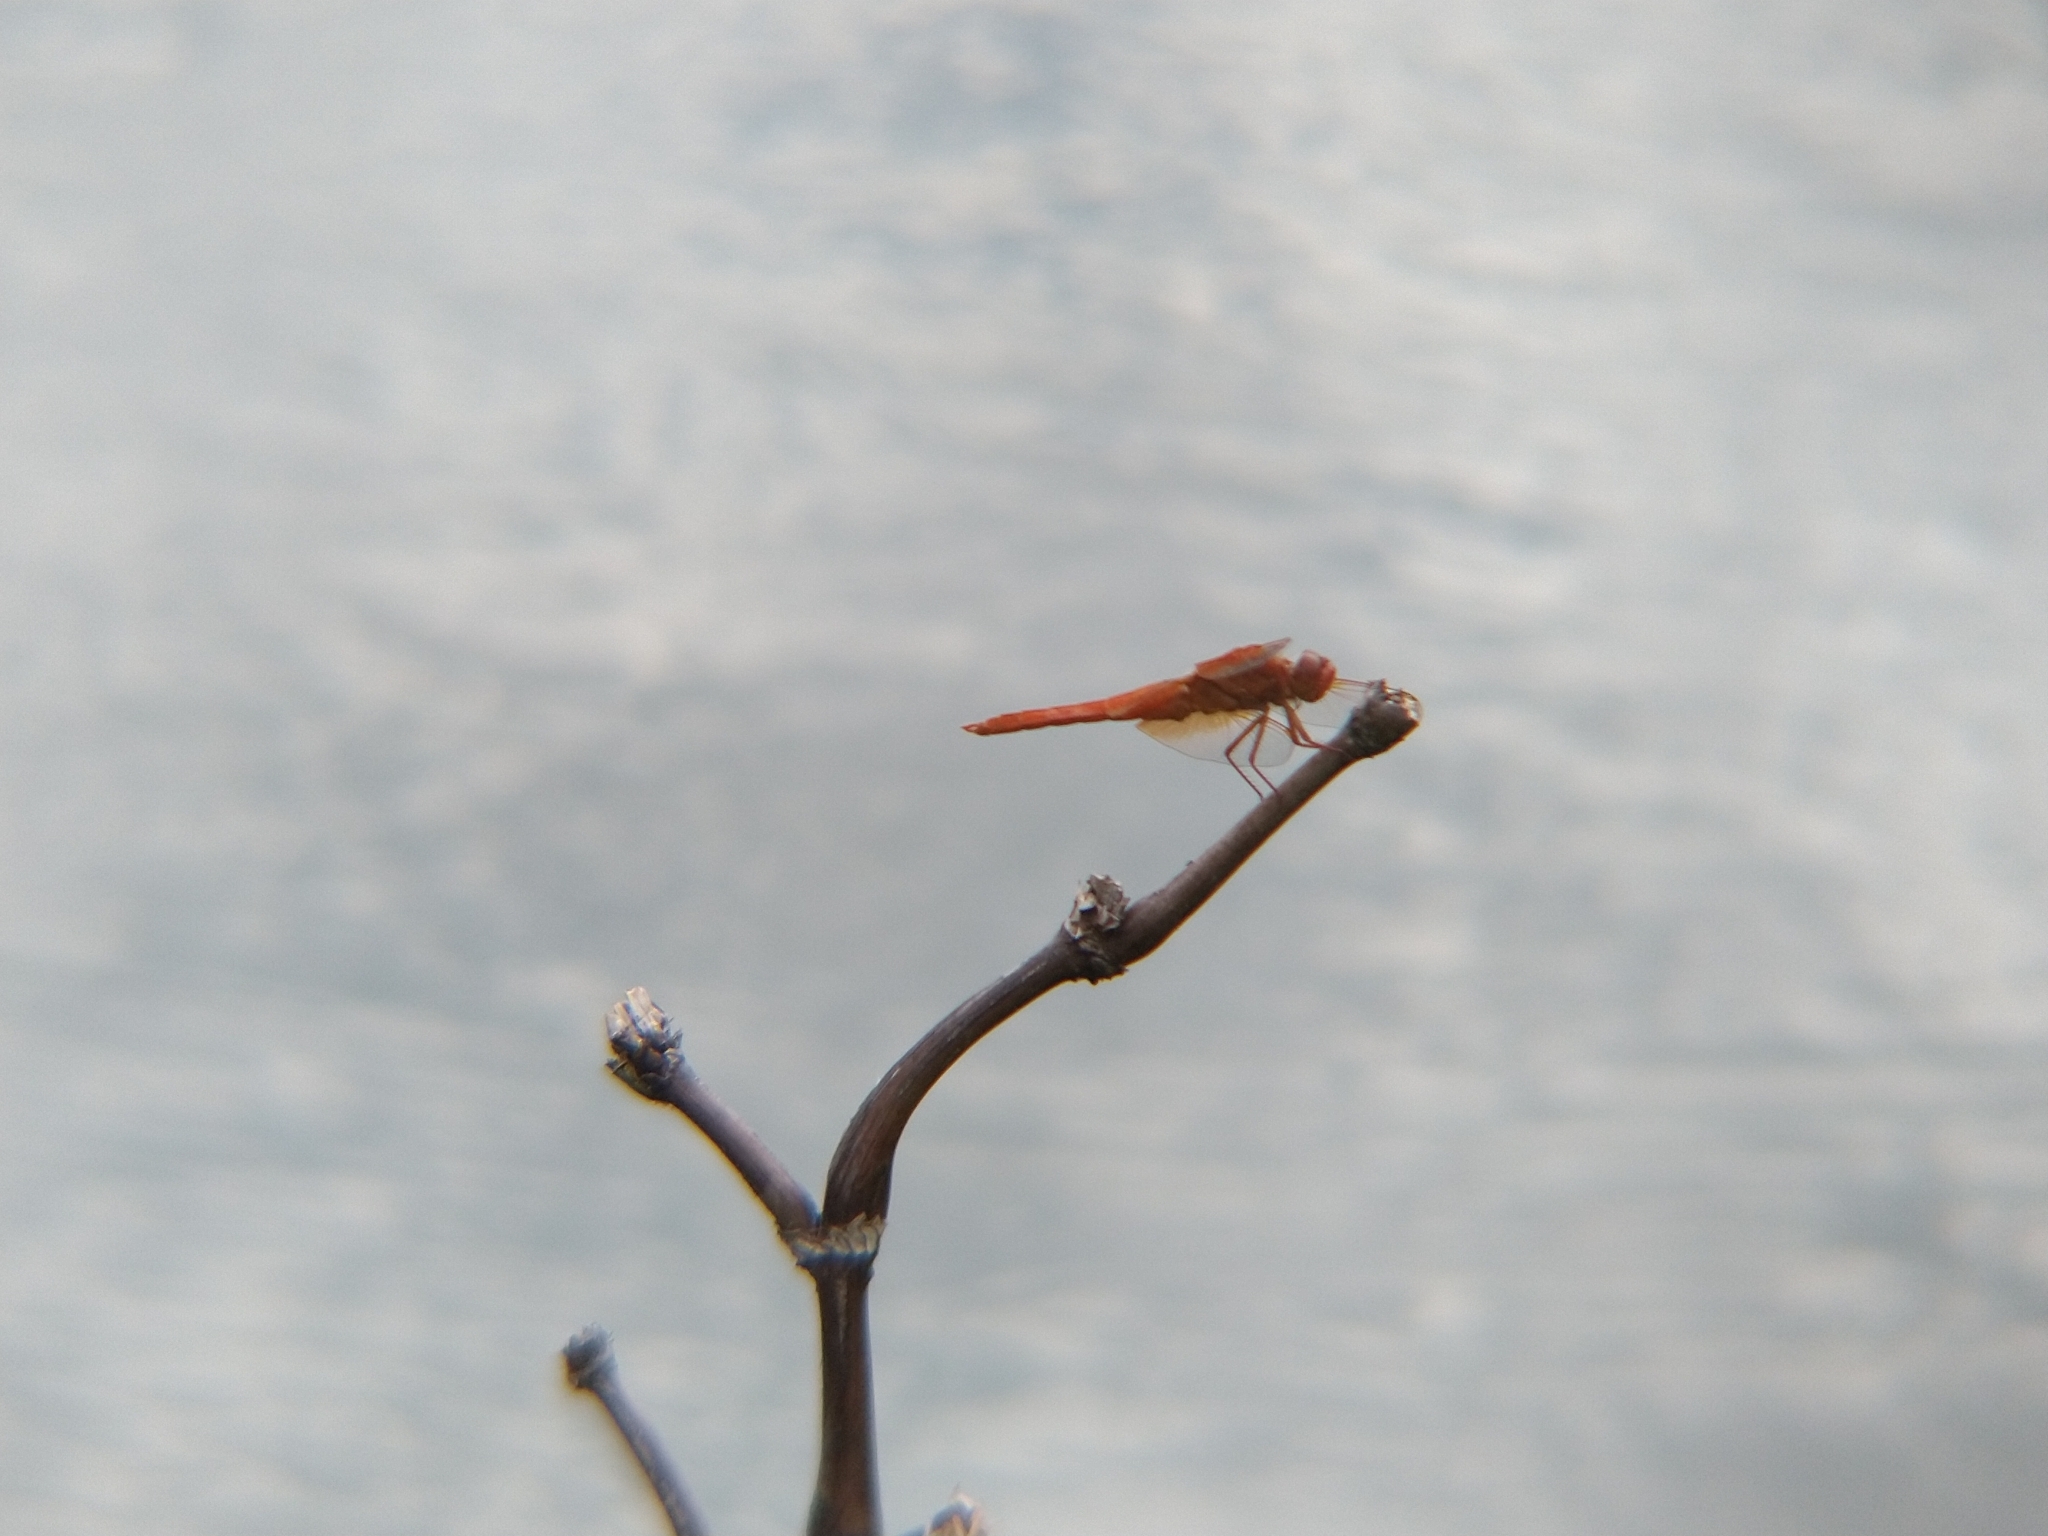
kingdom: Animalia
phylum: Arthropoda
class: Insecta
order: Odonata
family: Libellulidae
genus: Libellula
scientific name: Libellula saturata
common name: Flame skimmer
